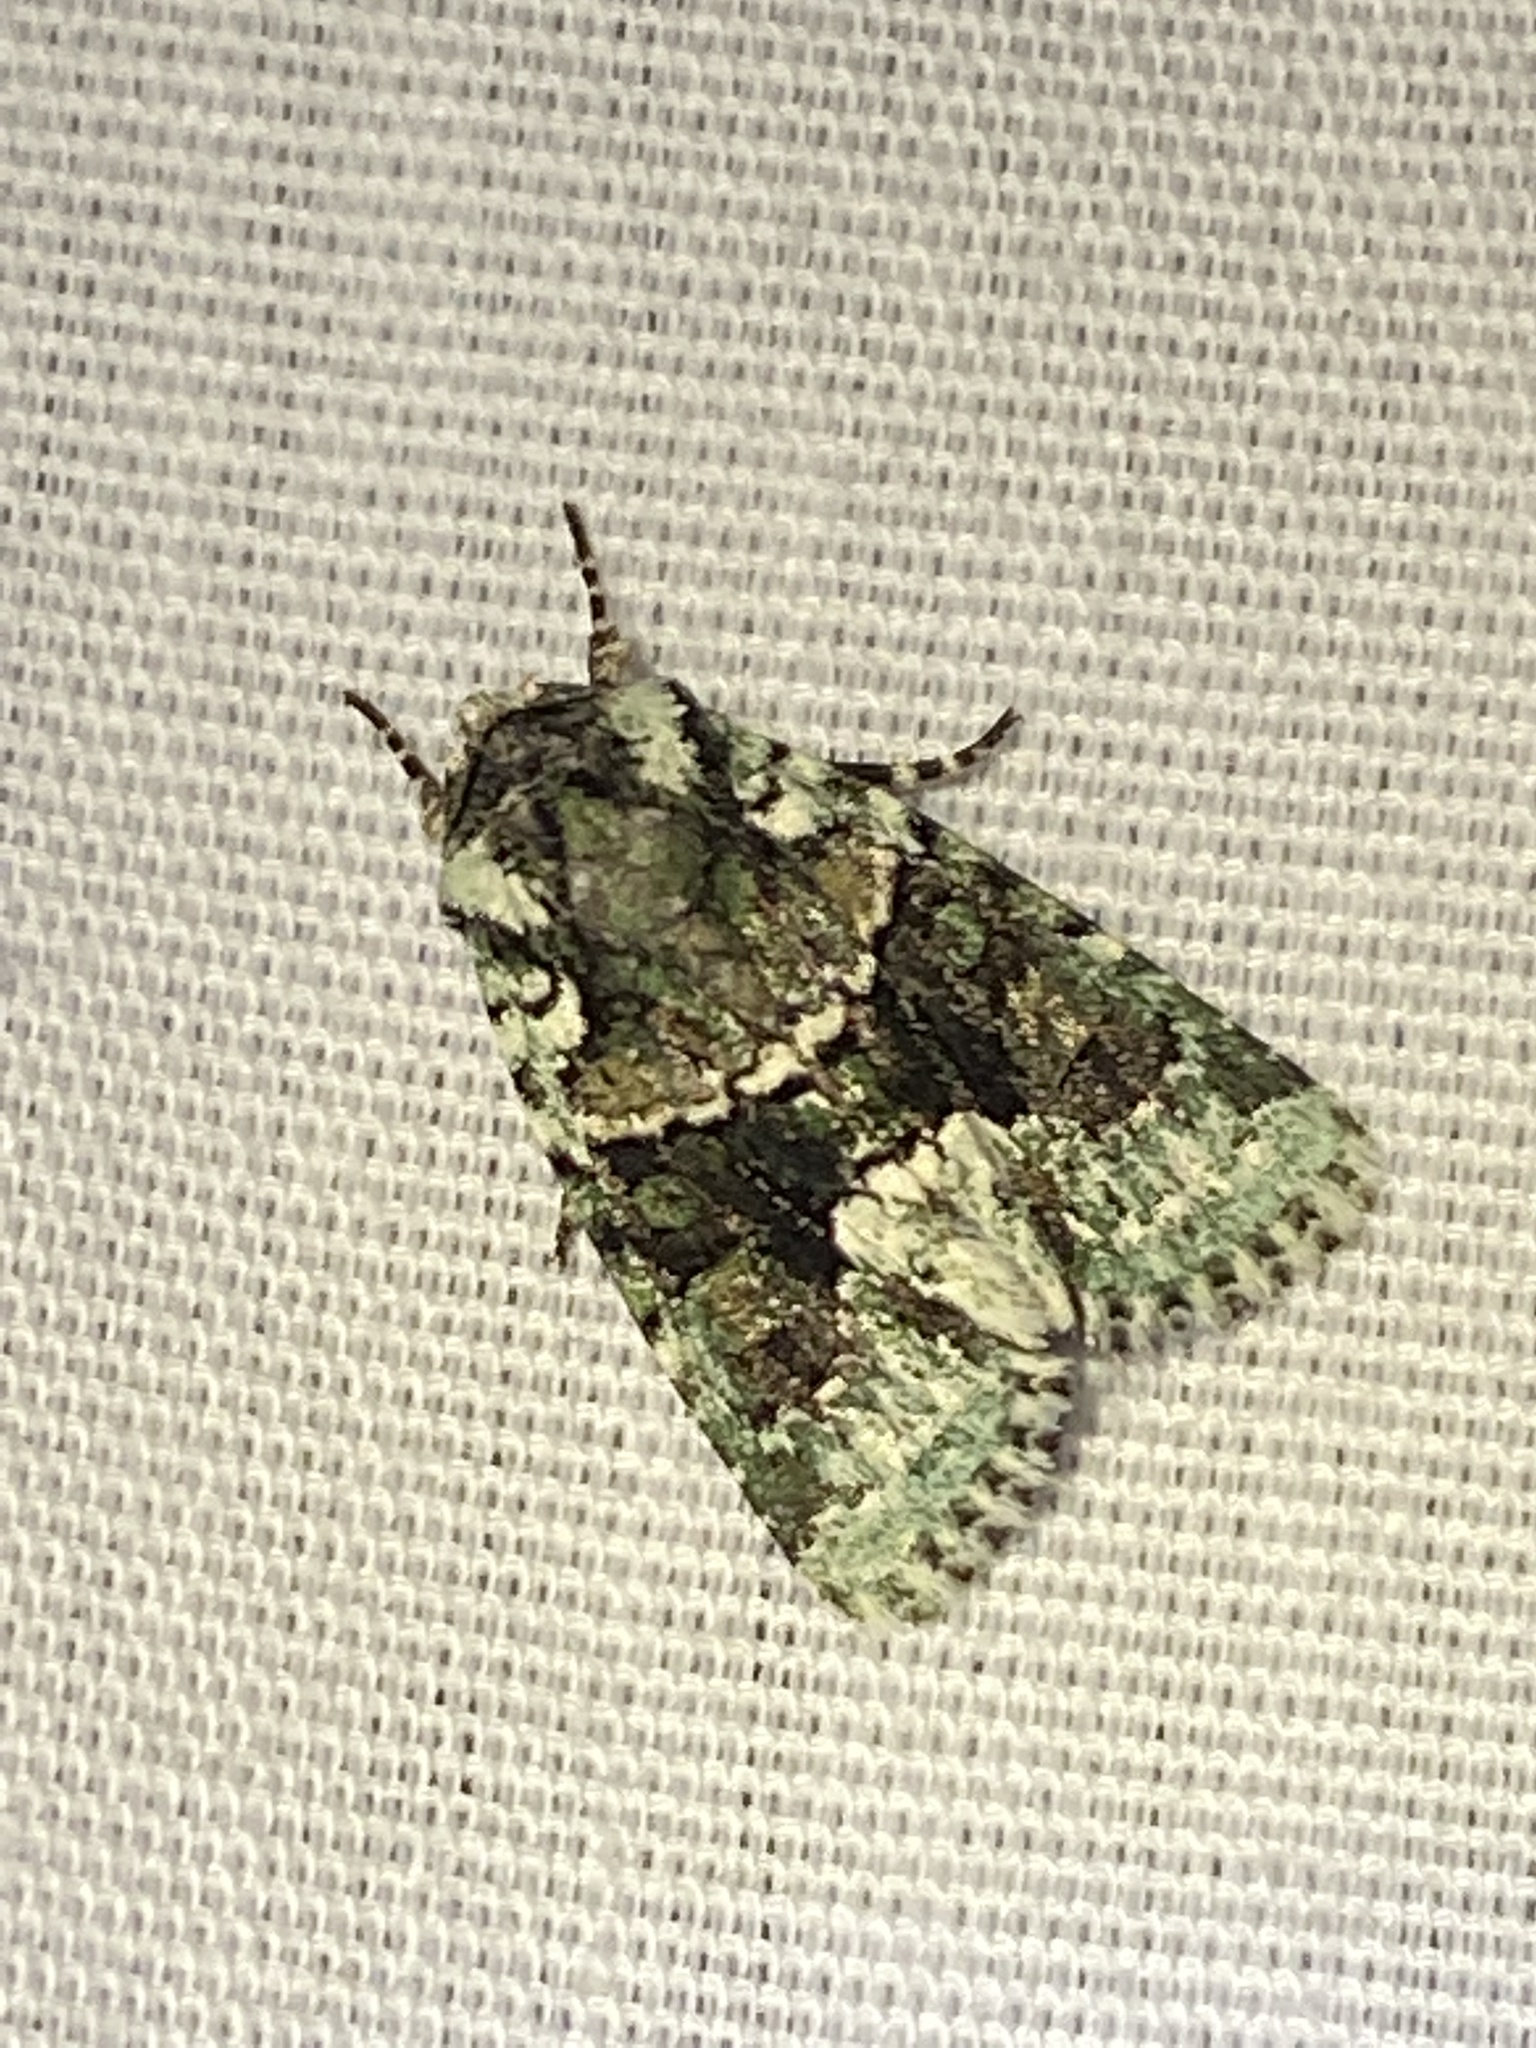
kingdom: Animalia
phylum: Arthropoda
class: Insecta
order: Lepidoptera
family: Noctuidae
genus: Lacinipolia
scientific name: Lacinipolia explicata
